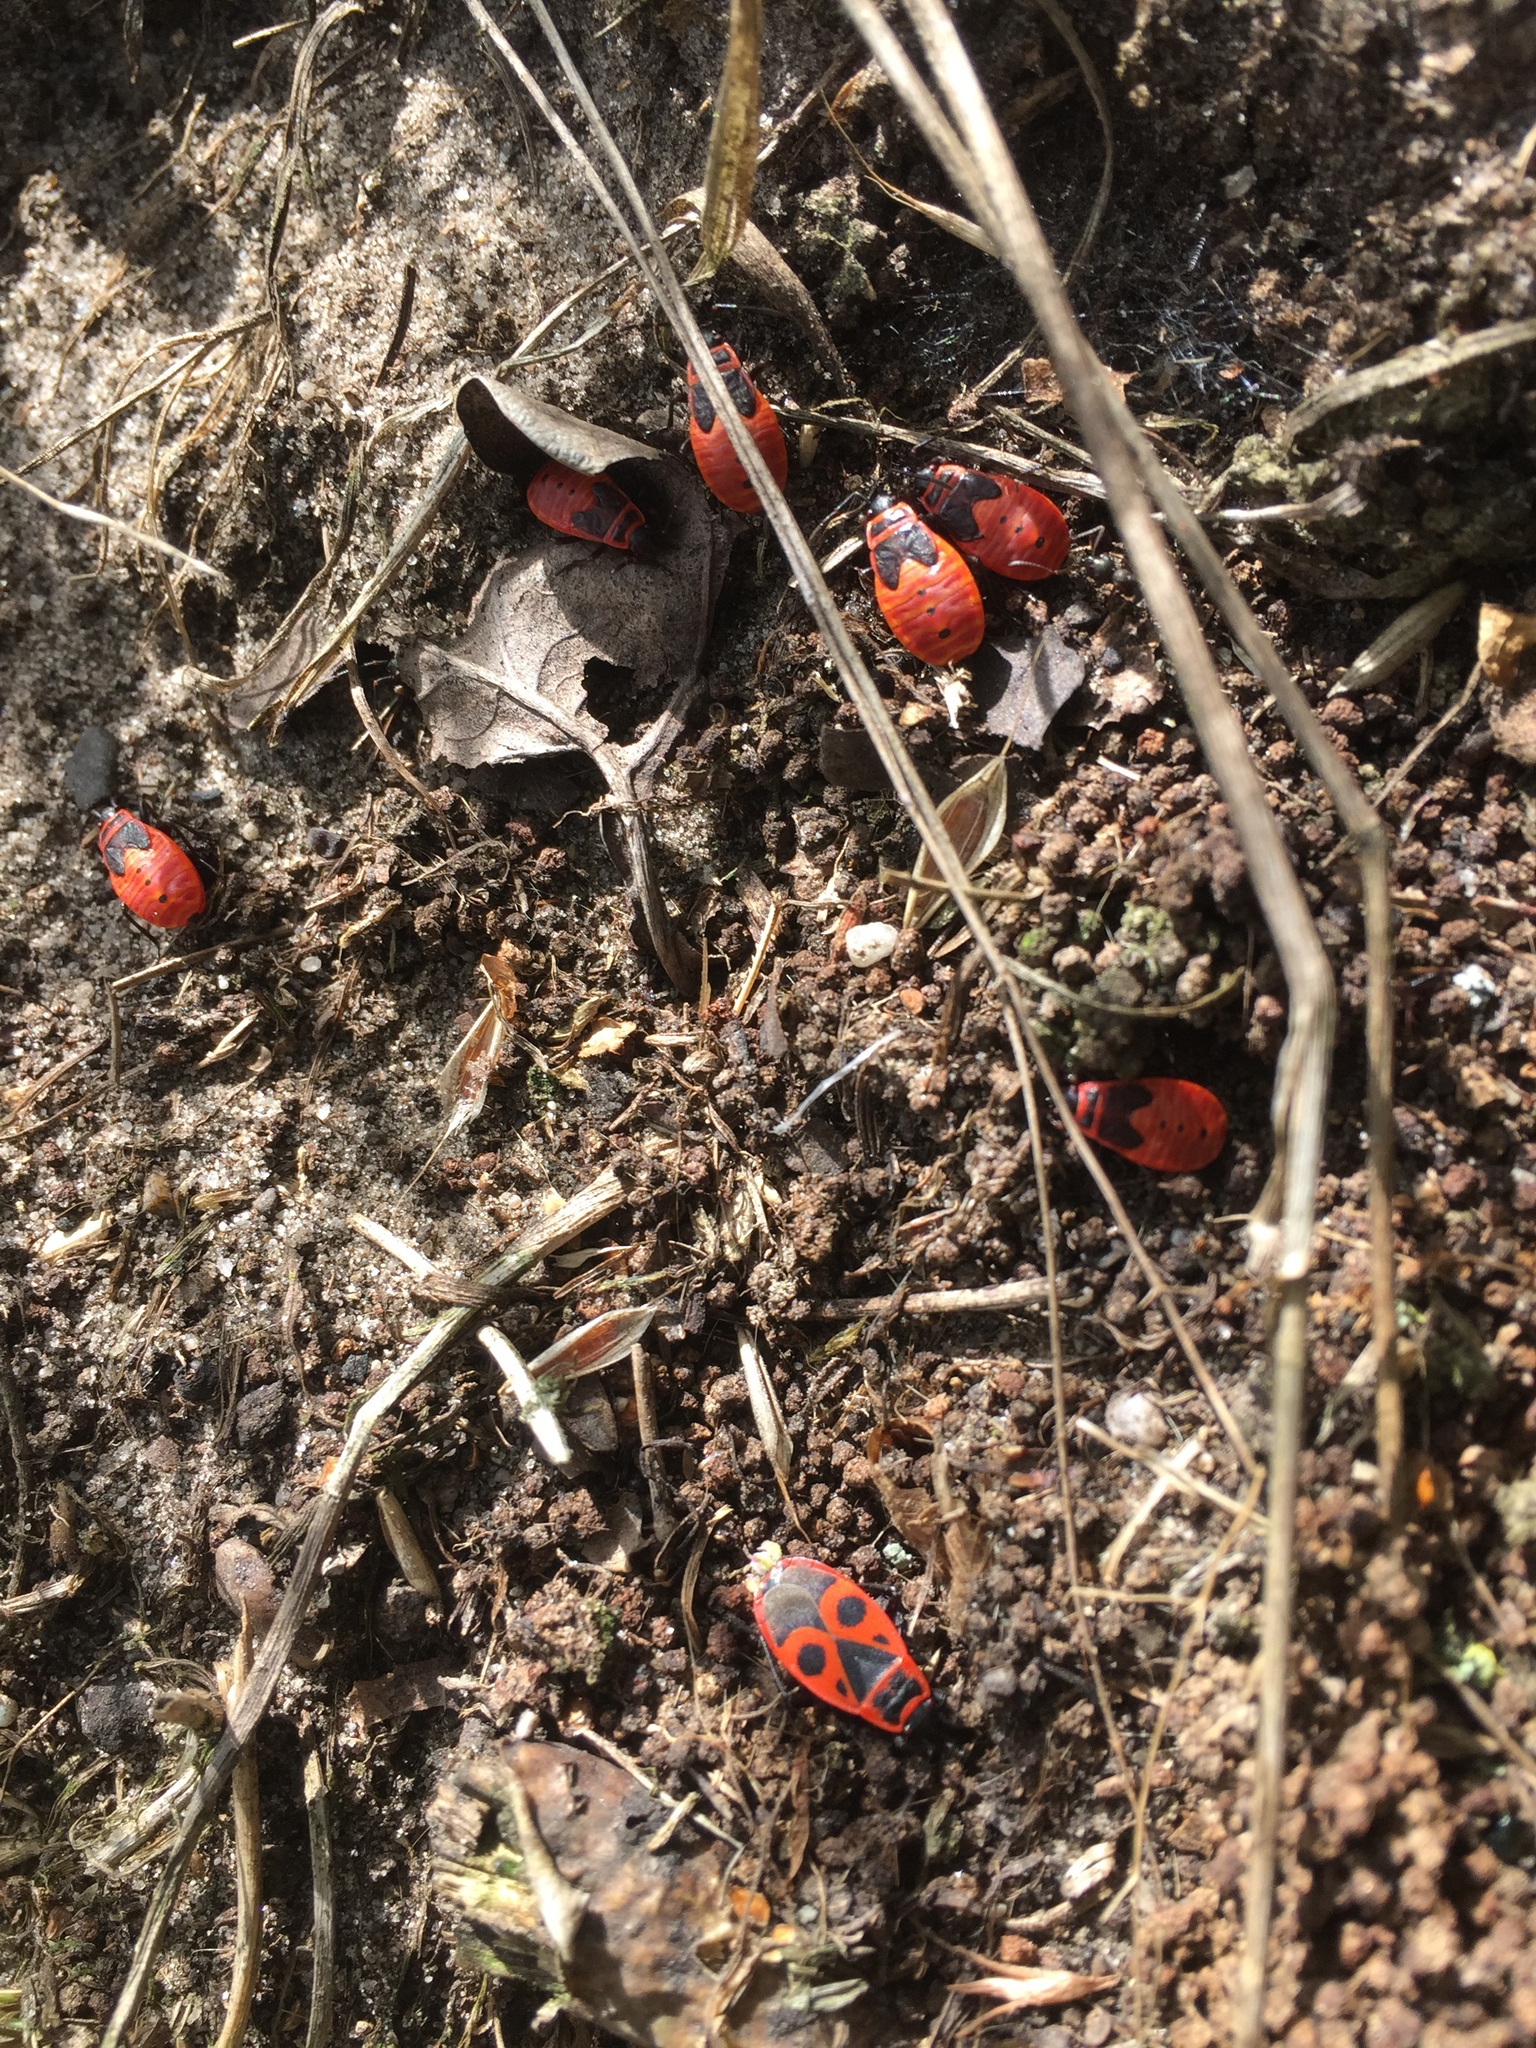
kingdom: Animalia
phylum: Arthropoda
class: Insecta
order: Hemiptera
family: Pyrrhocoridae
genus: Pyrrhocoris
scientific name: Pyrrhocoris apterus
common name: Firebug
